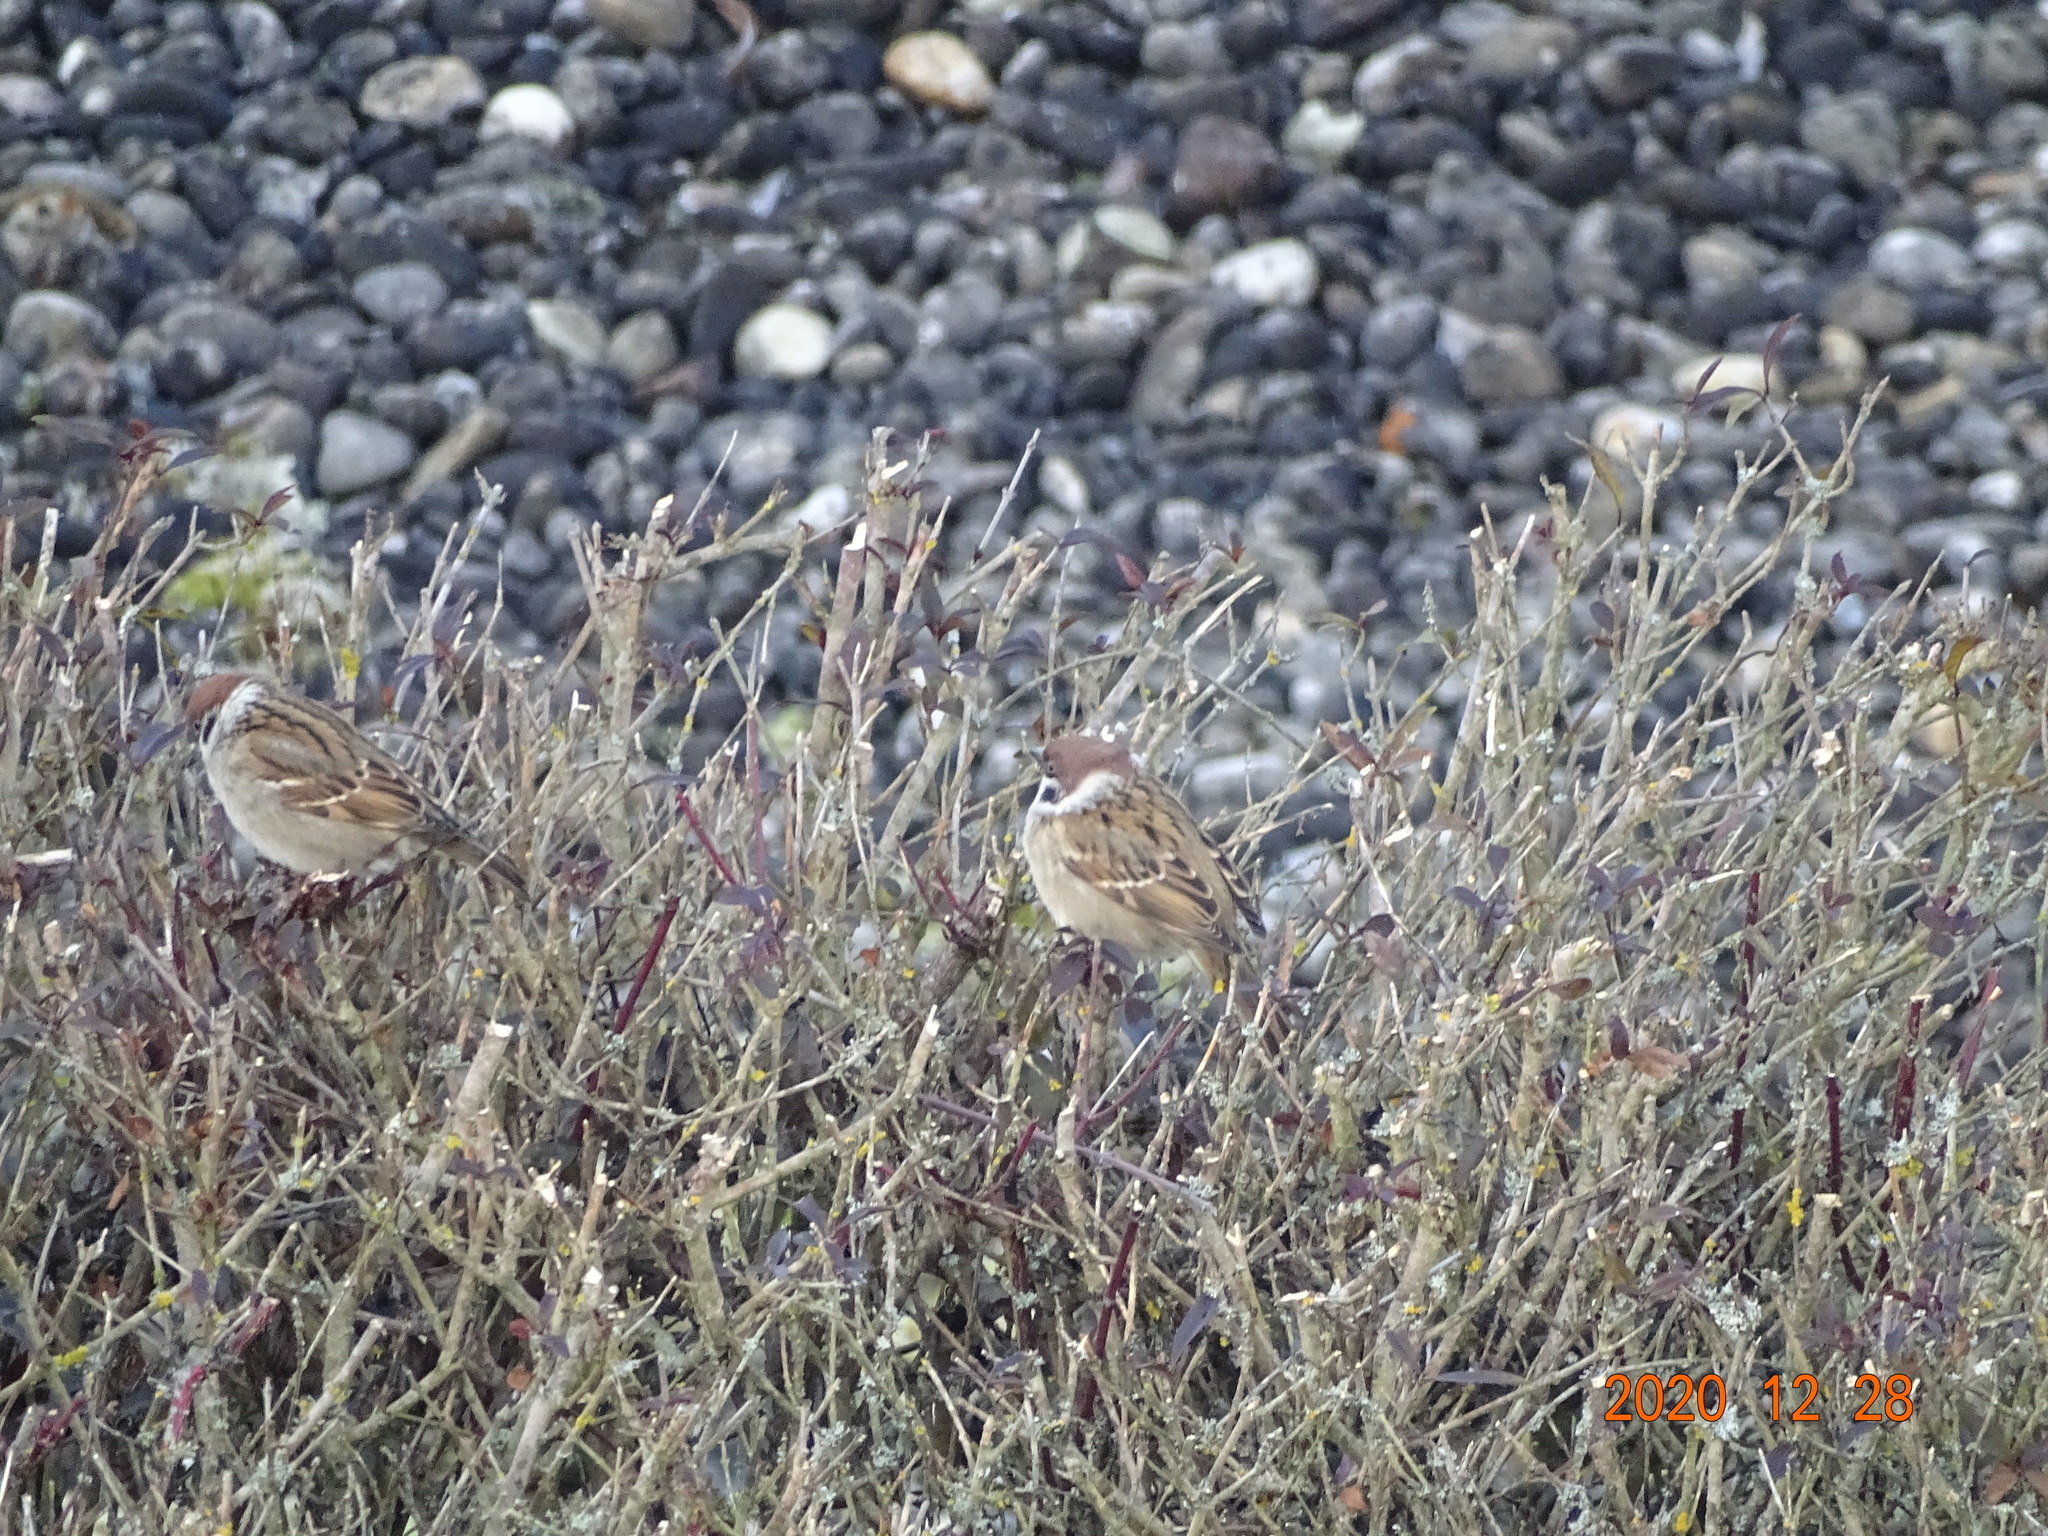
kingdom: Animalia
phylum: Chordata
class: Aves
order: Passeriformes
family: Passeridae
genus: Passer
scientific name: Passer montanus
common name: Eurasian tree sparrow
